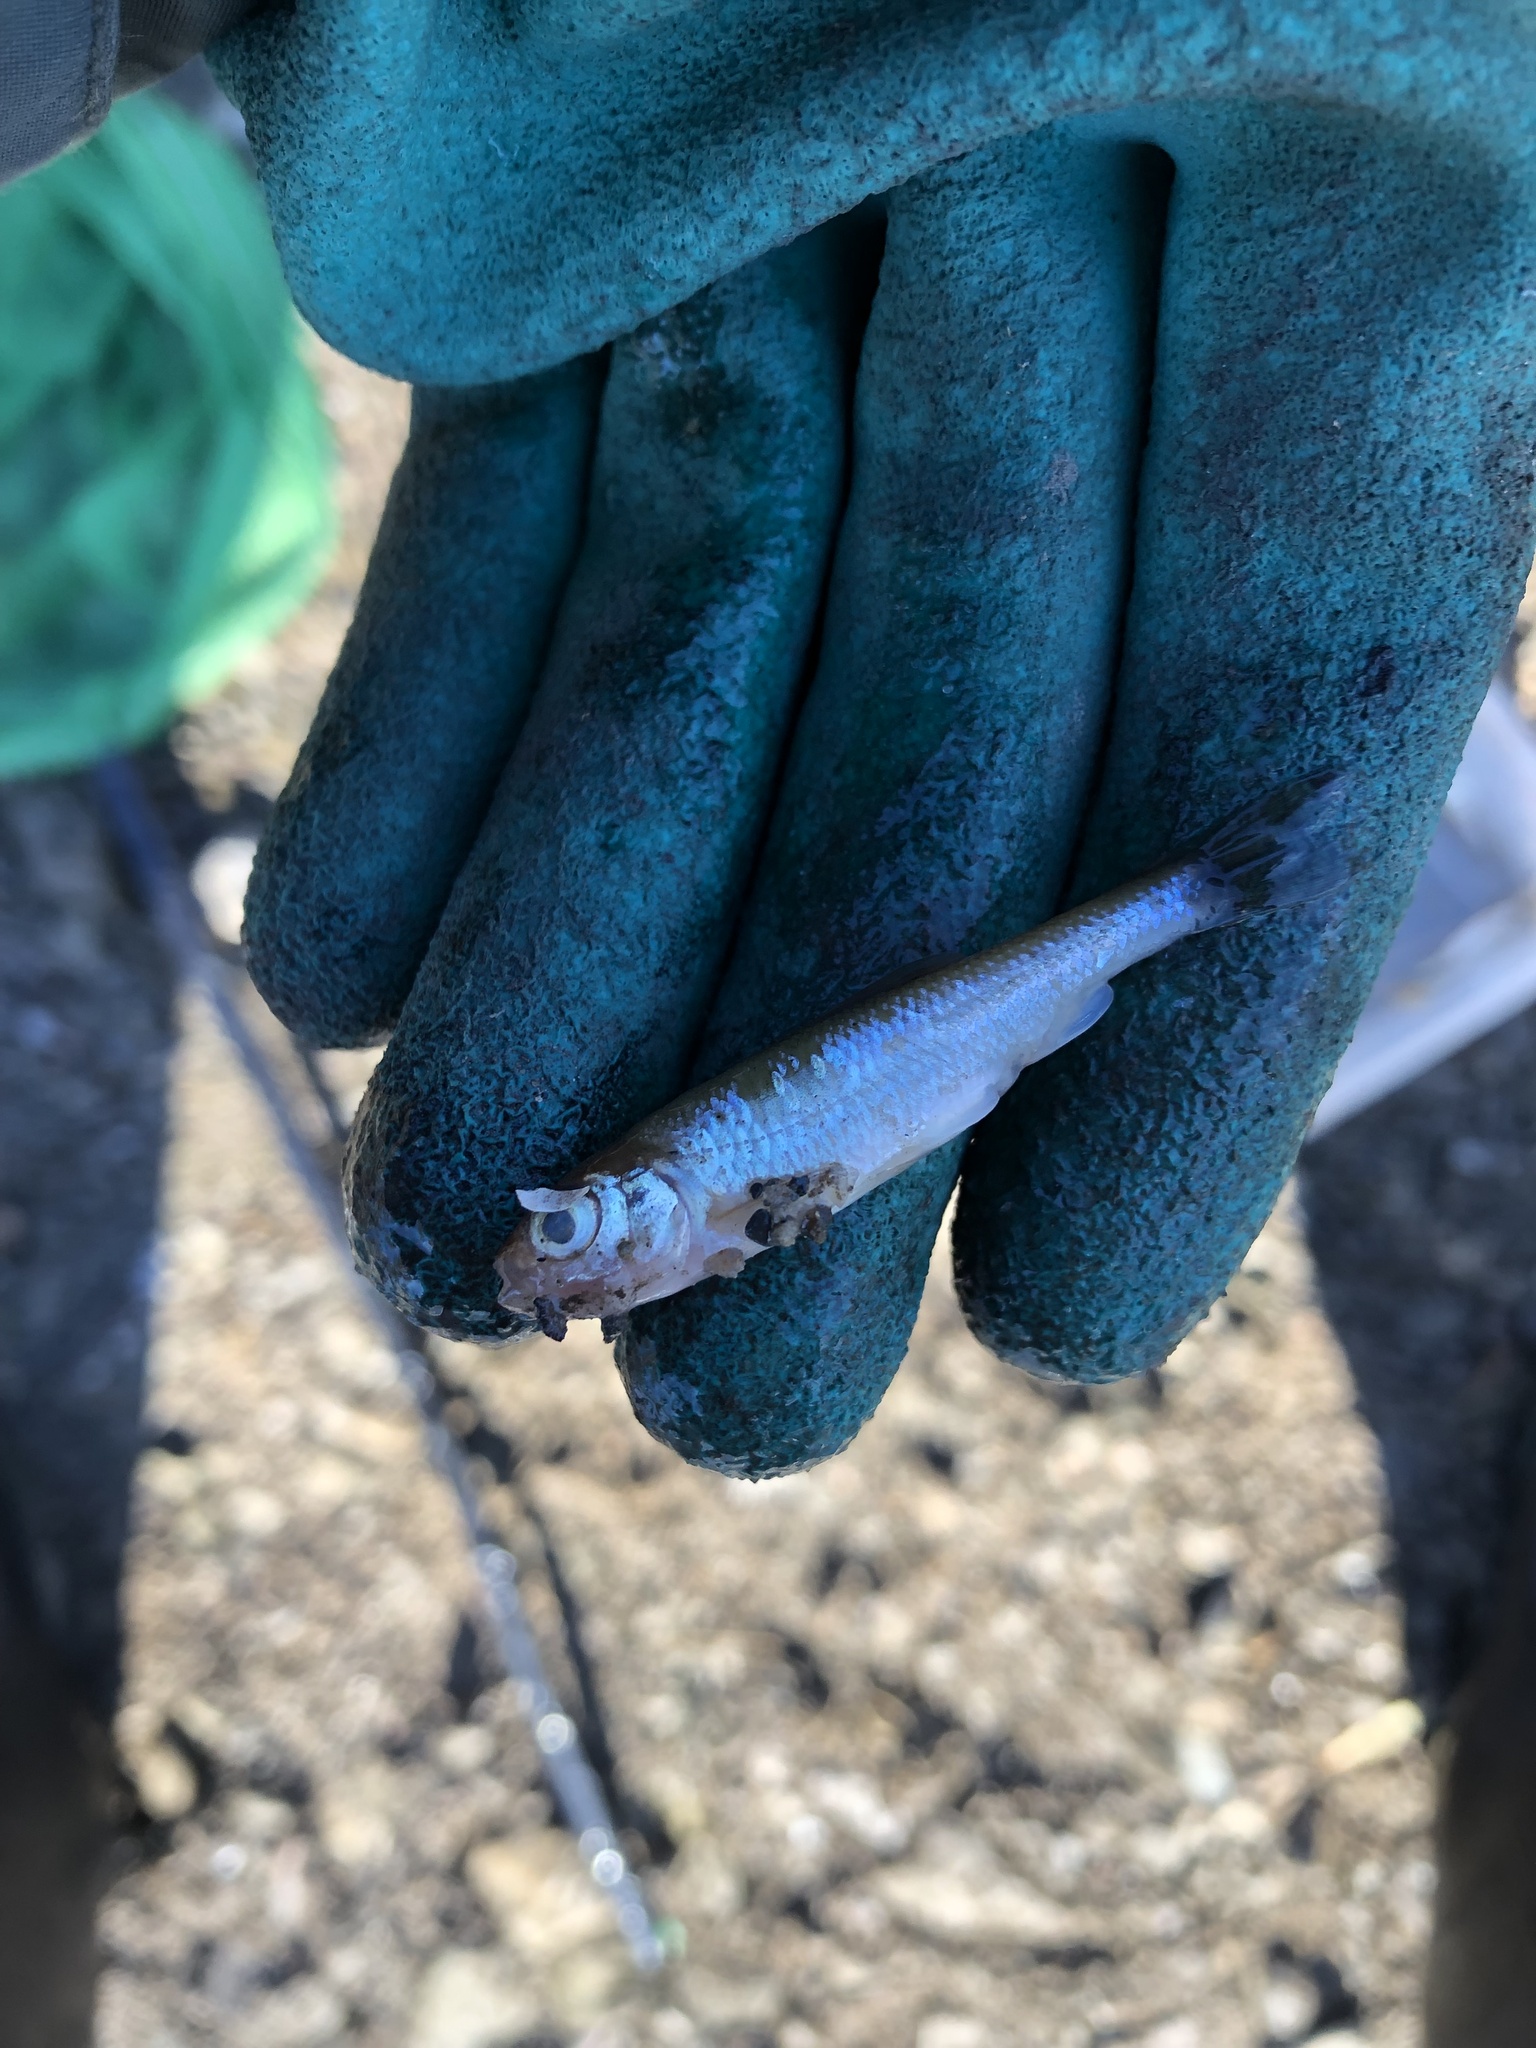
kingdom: Animalia
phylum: Chordata
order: Cypriniformes
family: Cyprinidae
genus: Luxilus
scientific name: Luxilus cornutus
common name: Common shiner
